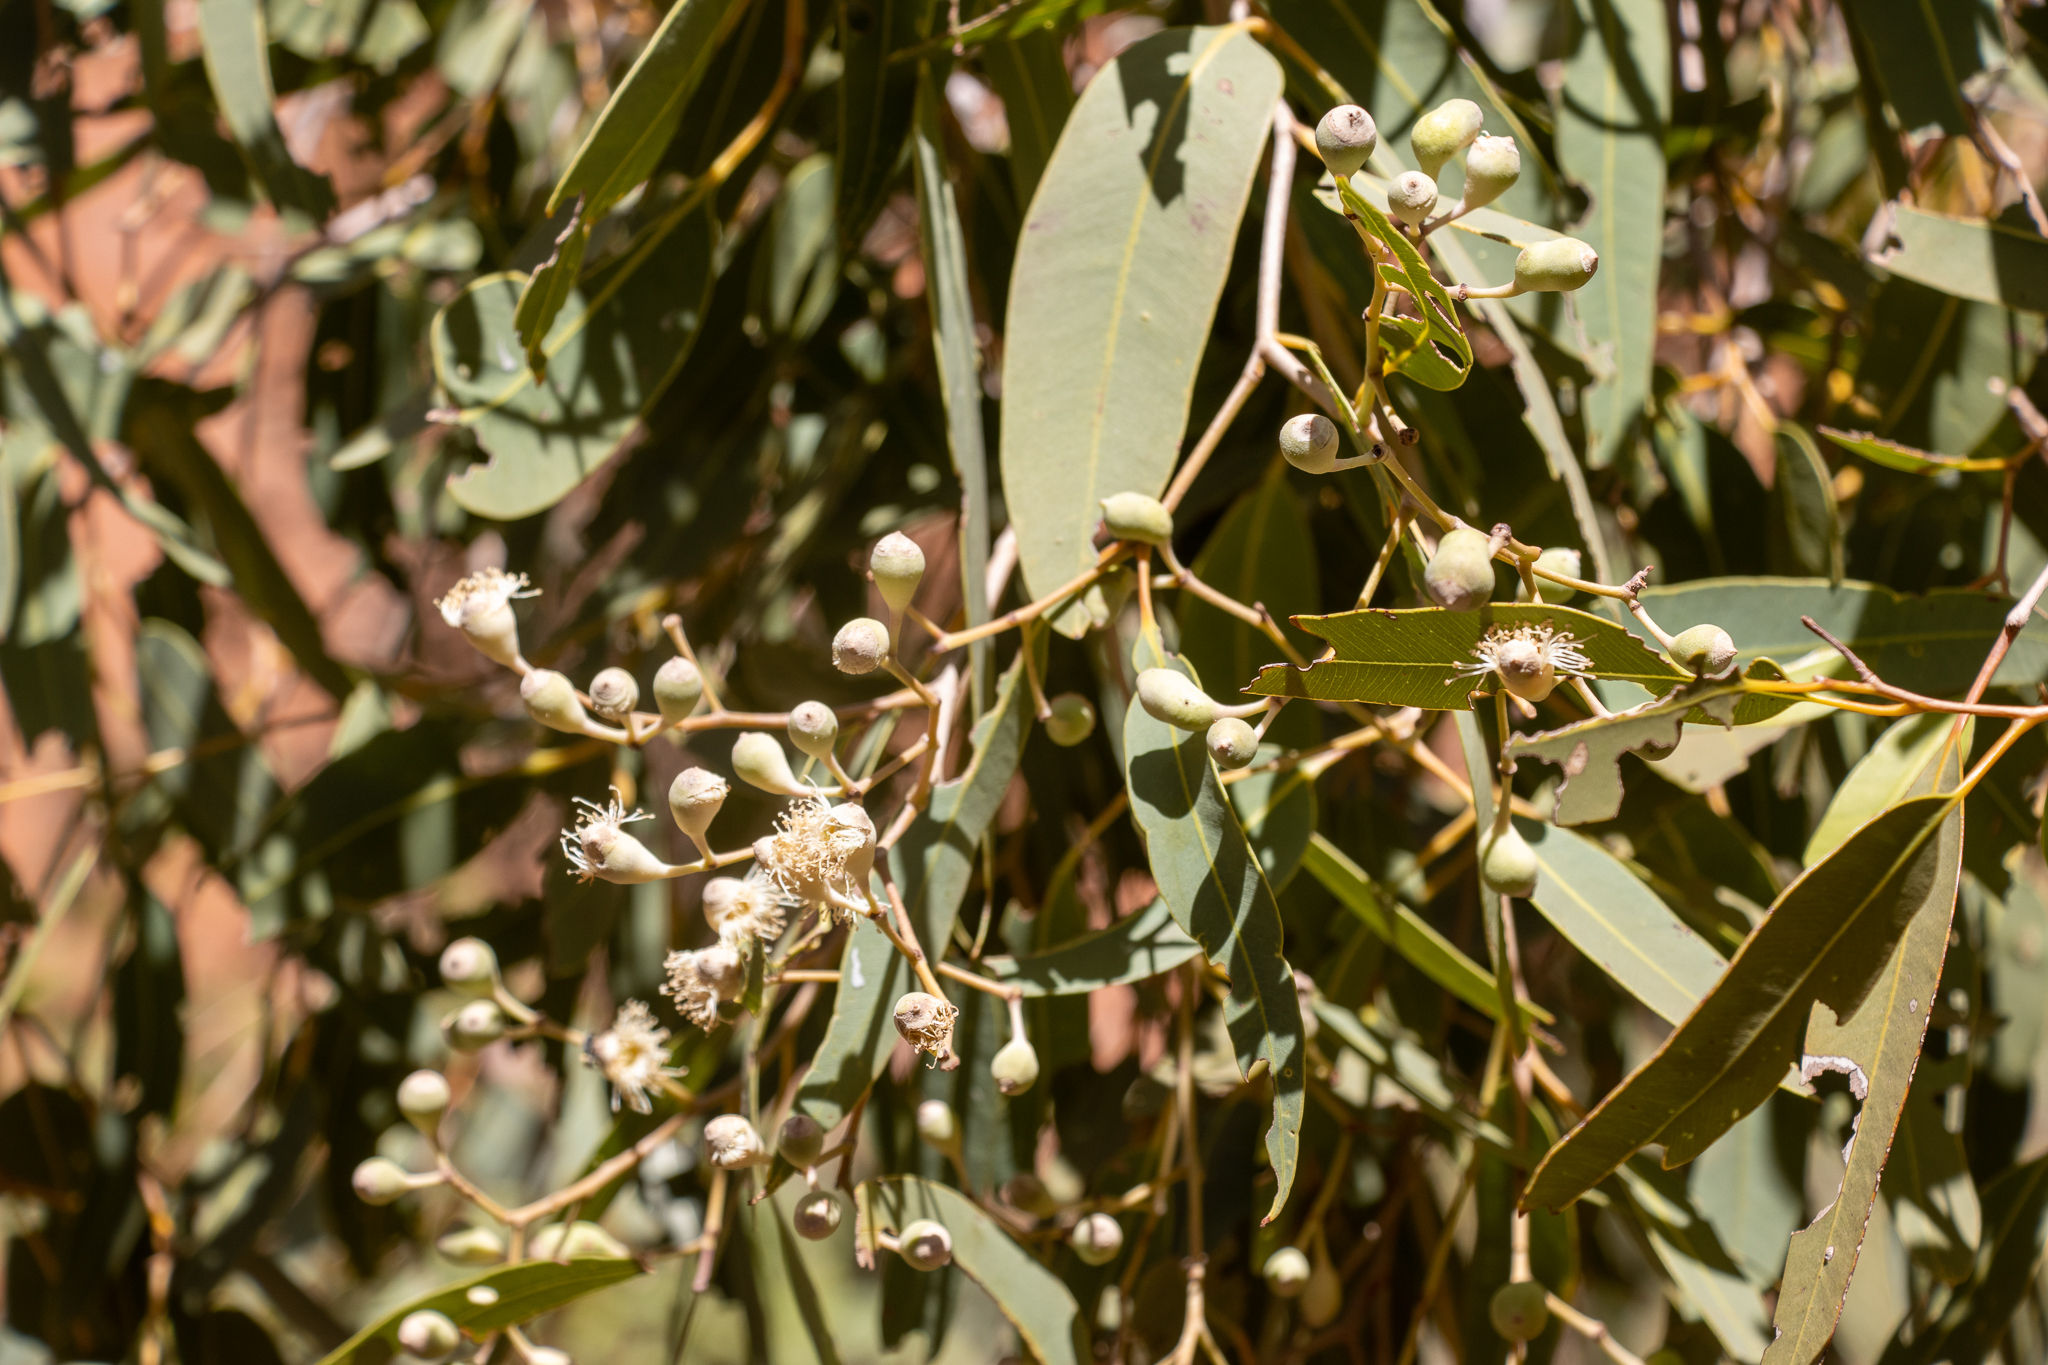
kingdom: Plantae
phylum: Tracheophyta
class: Magnoliopsida
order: Myrtales
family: Myrtaceae
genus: Corymbia
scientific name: Corymbia opaca
